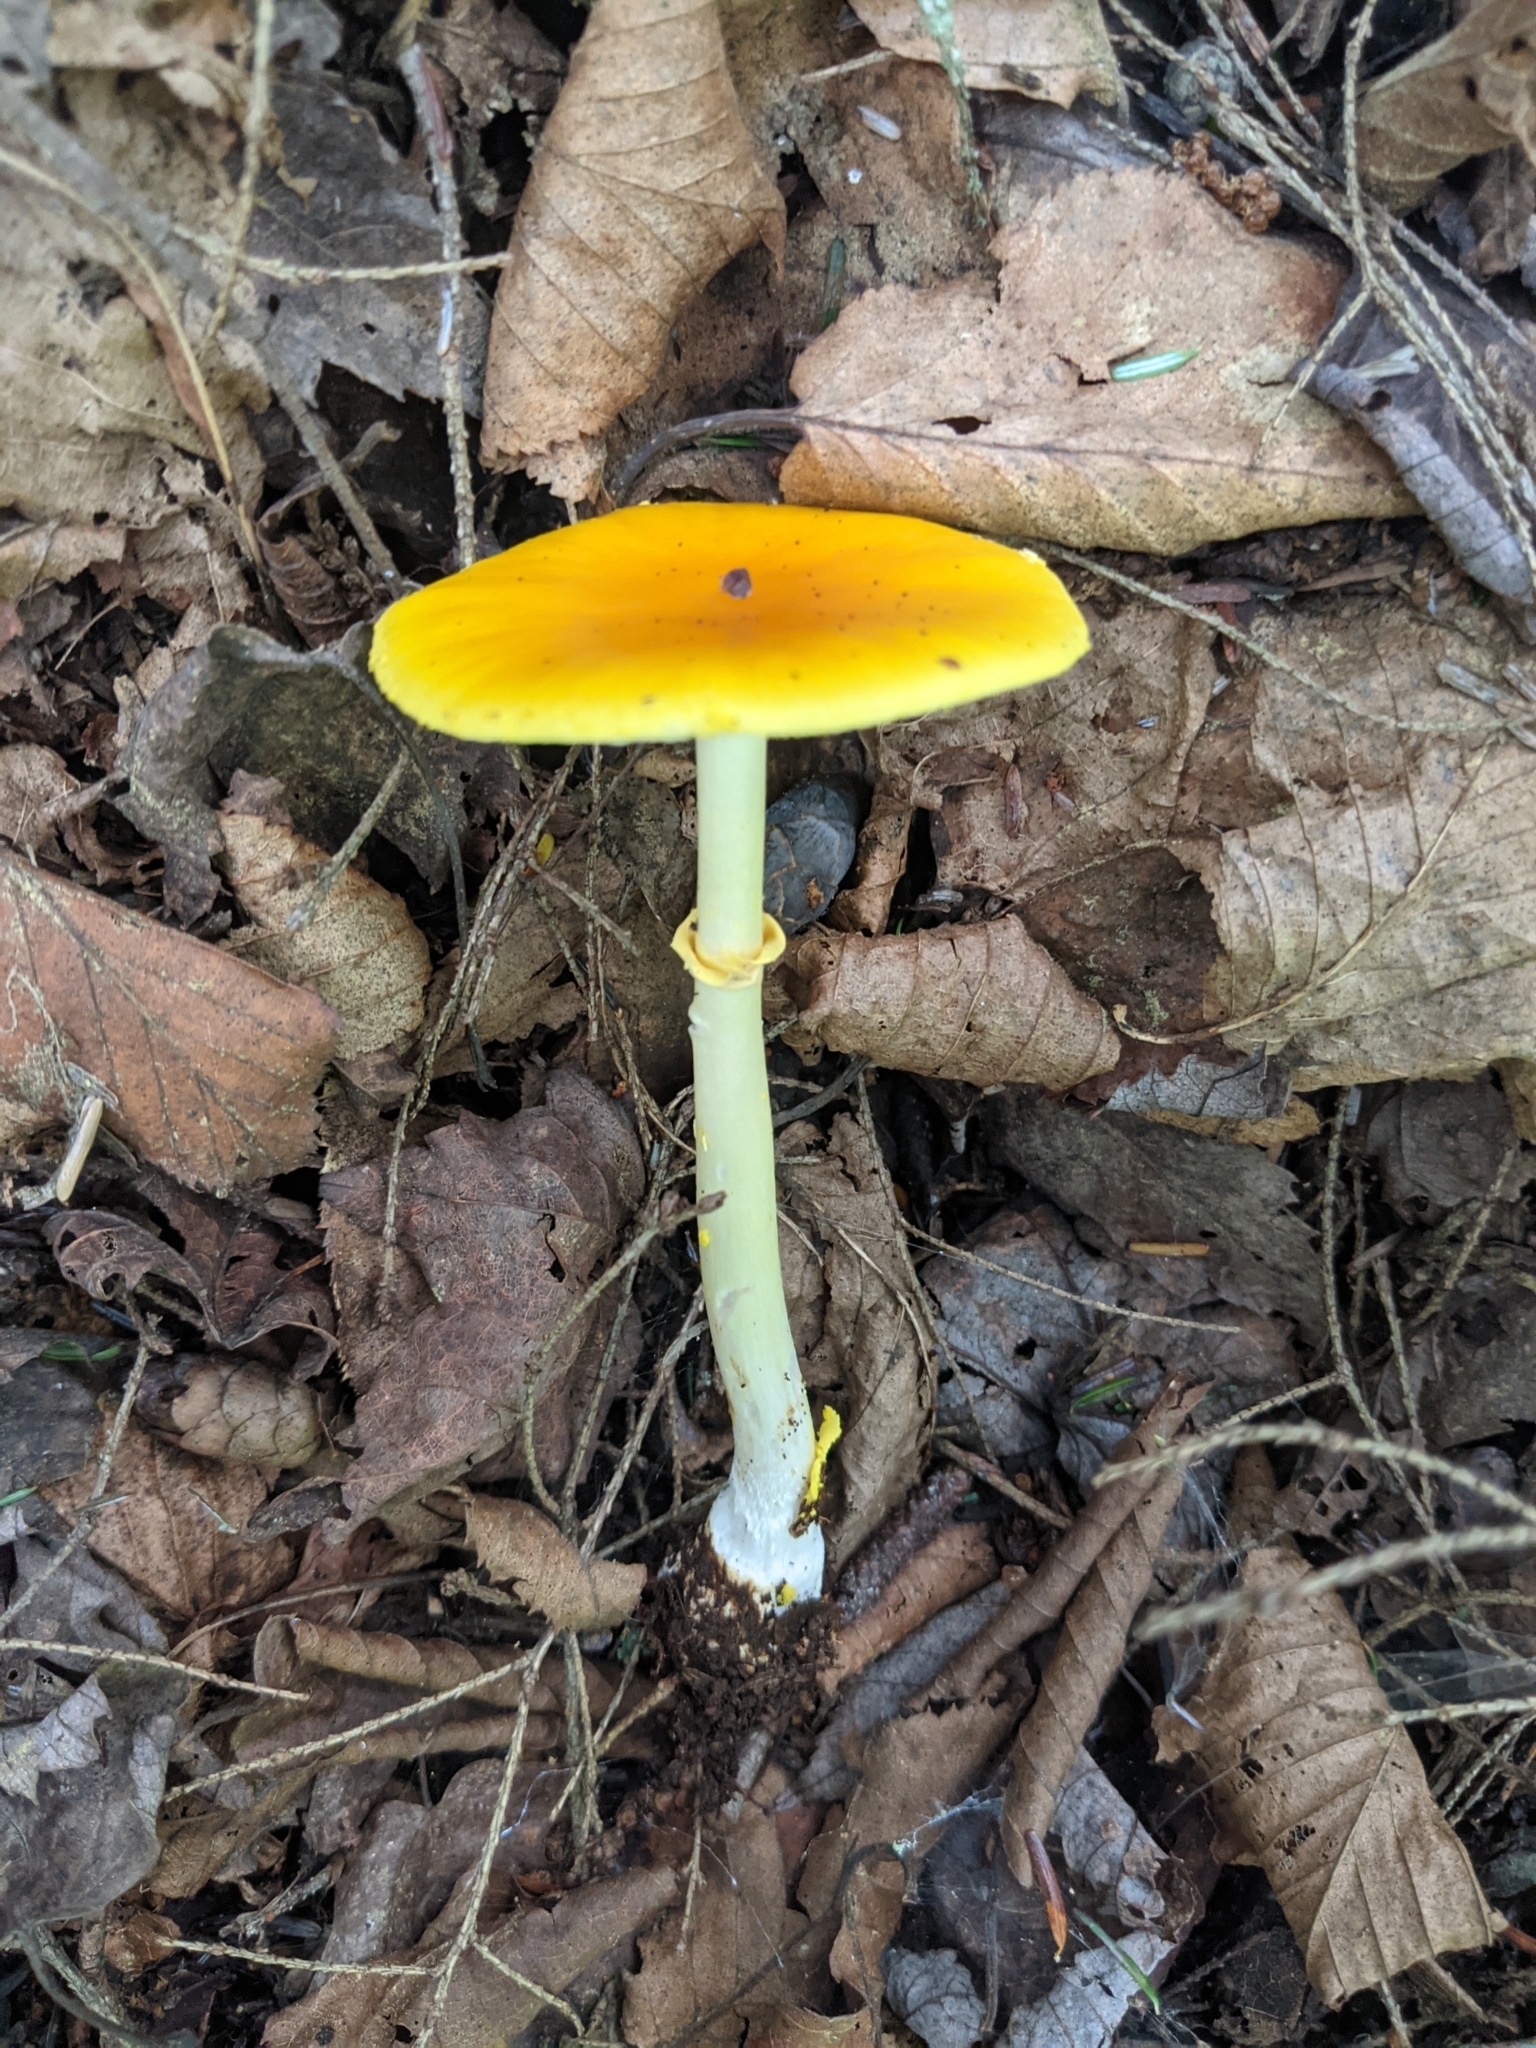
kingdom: Fungi
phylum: Basidiomycota
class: Agaricomycetes
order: Agaricales
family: Amanitaceae
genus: Amanita
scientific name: Amanita flavoconia
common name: Yellow patches
